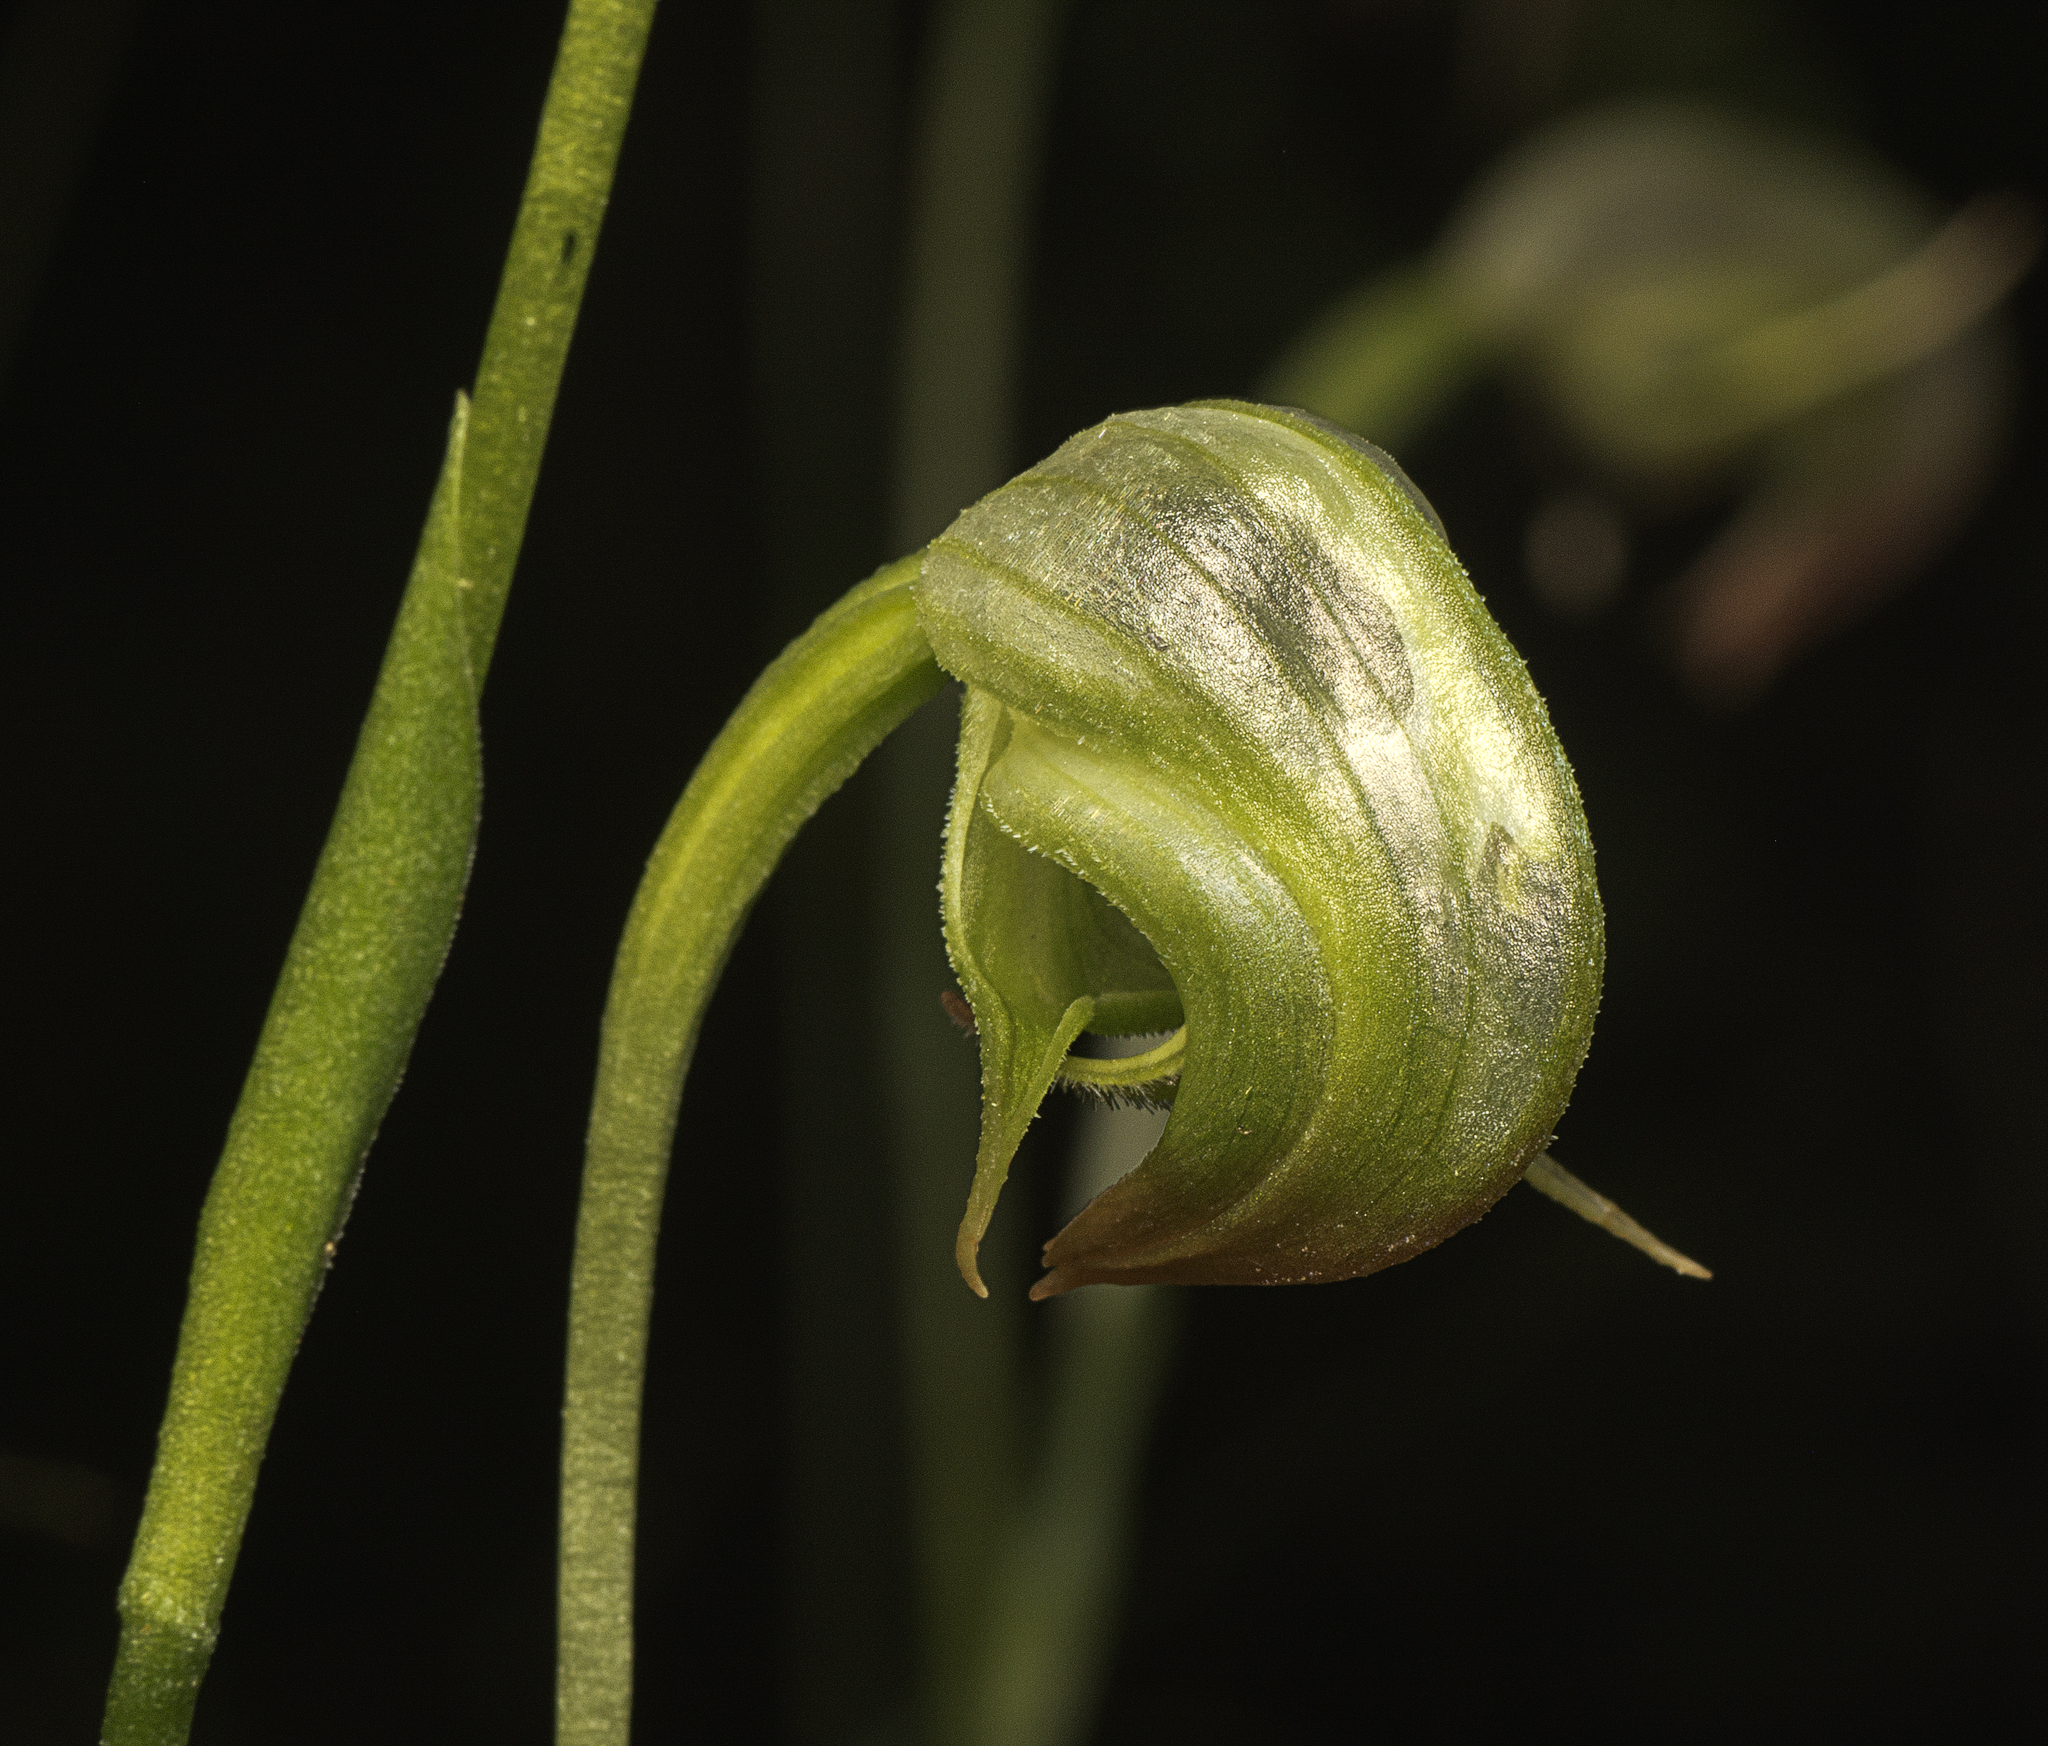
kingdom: Plantae
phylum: Tracheophyta
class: Liliopsida
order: Asparagales
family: Orchidaceae
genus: Pterostylis
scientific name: Pterostylis nutans
